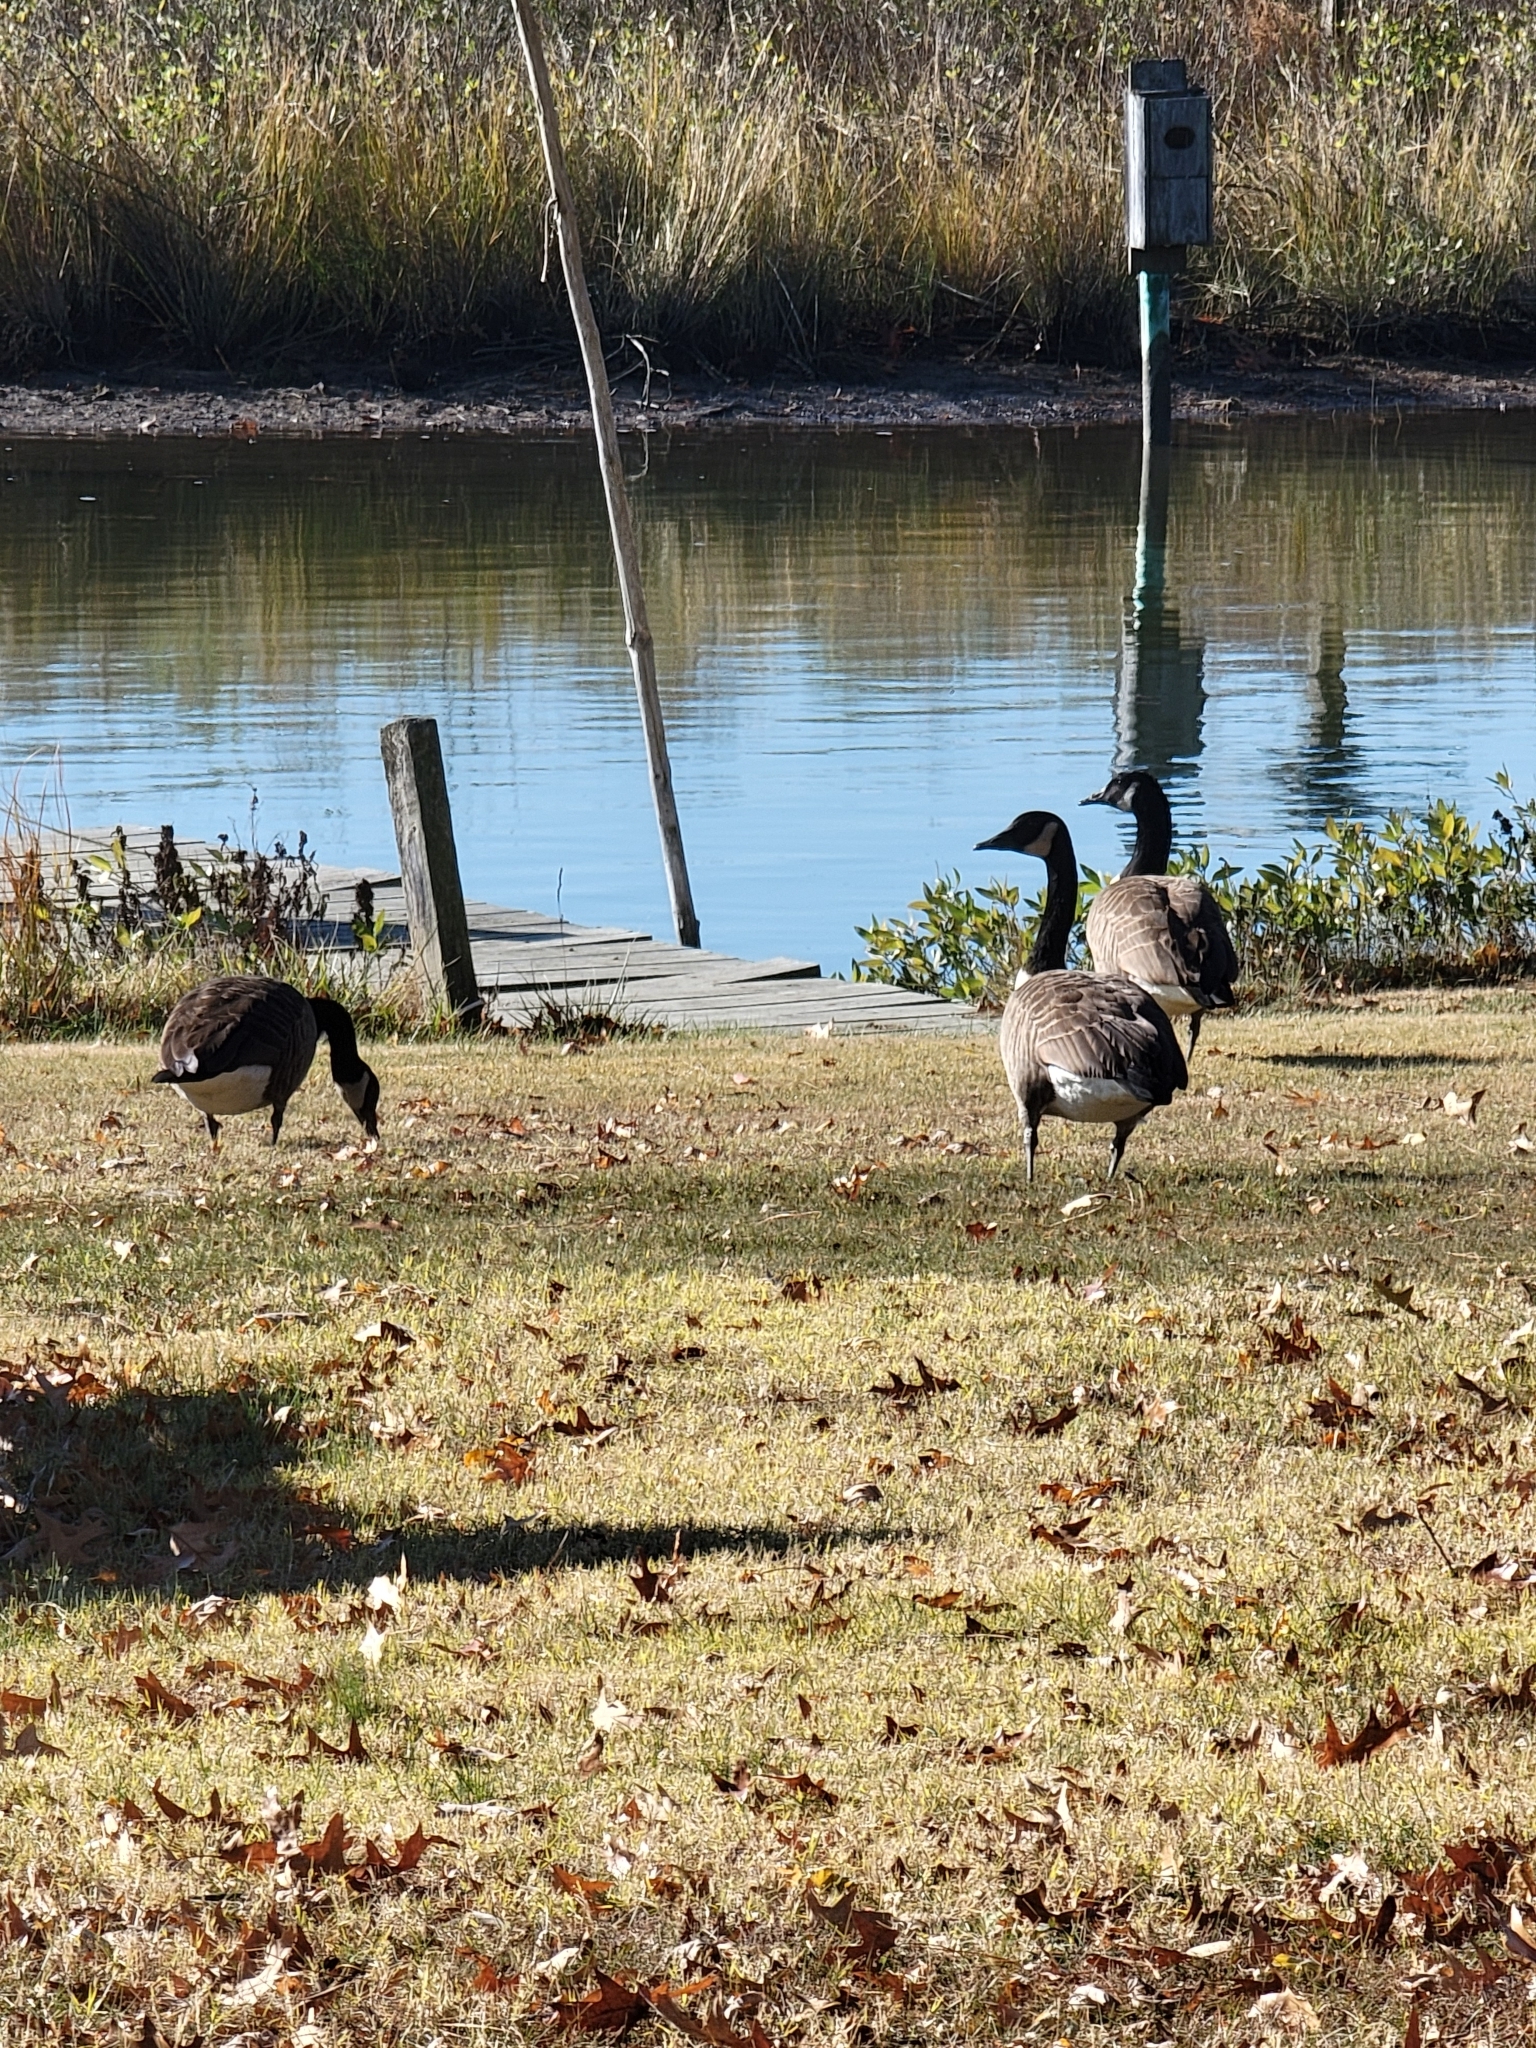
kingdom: Animalia
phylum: Chordata
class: Aves
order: Anseriformes
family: Anatidae
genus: Branta
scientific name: Branta canadensis
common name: Canada goose
